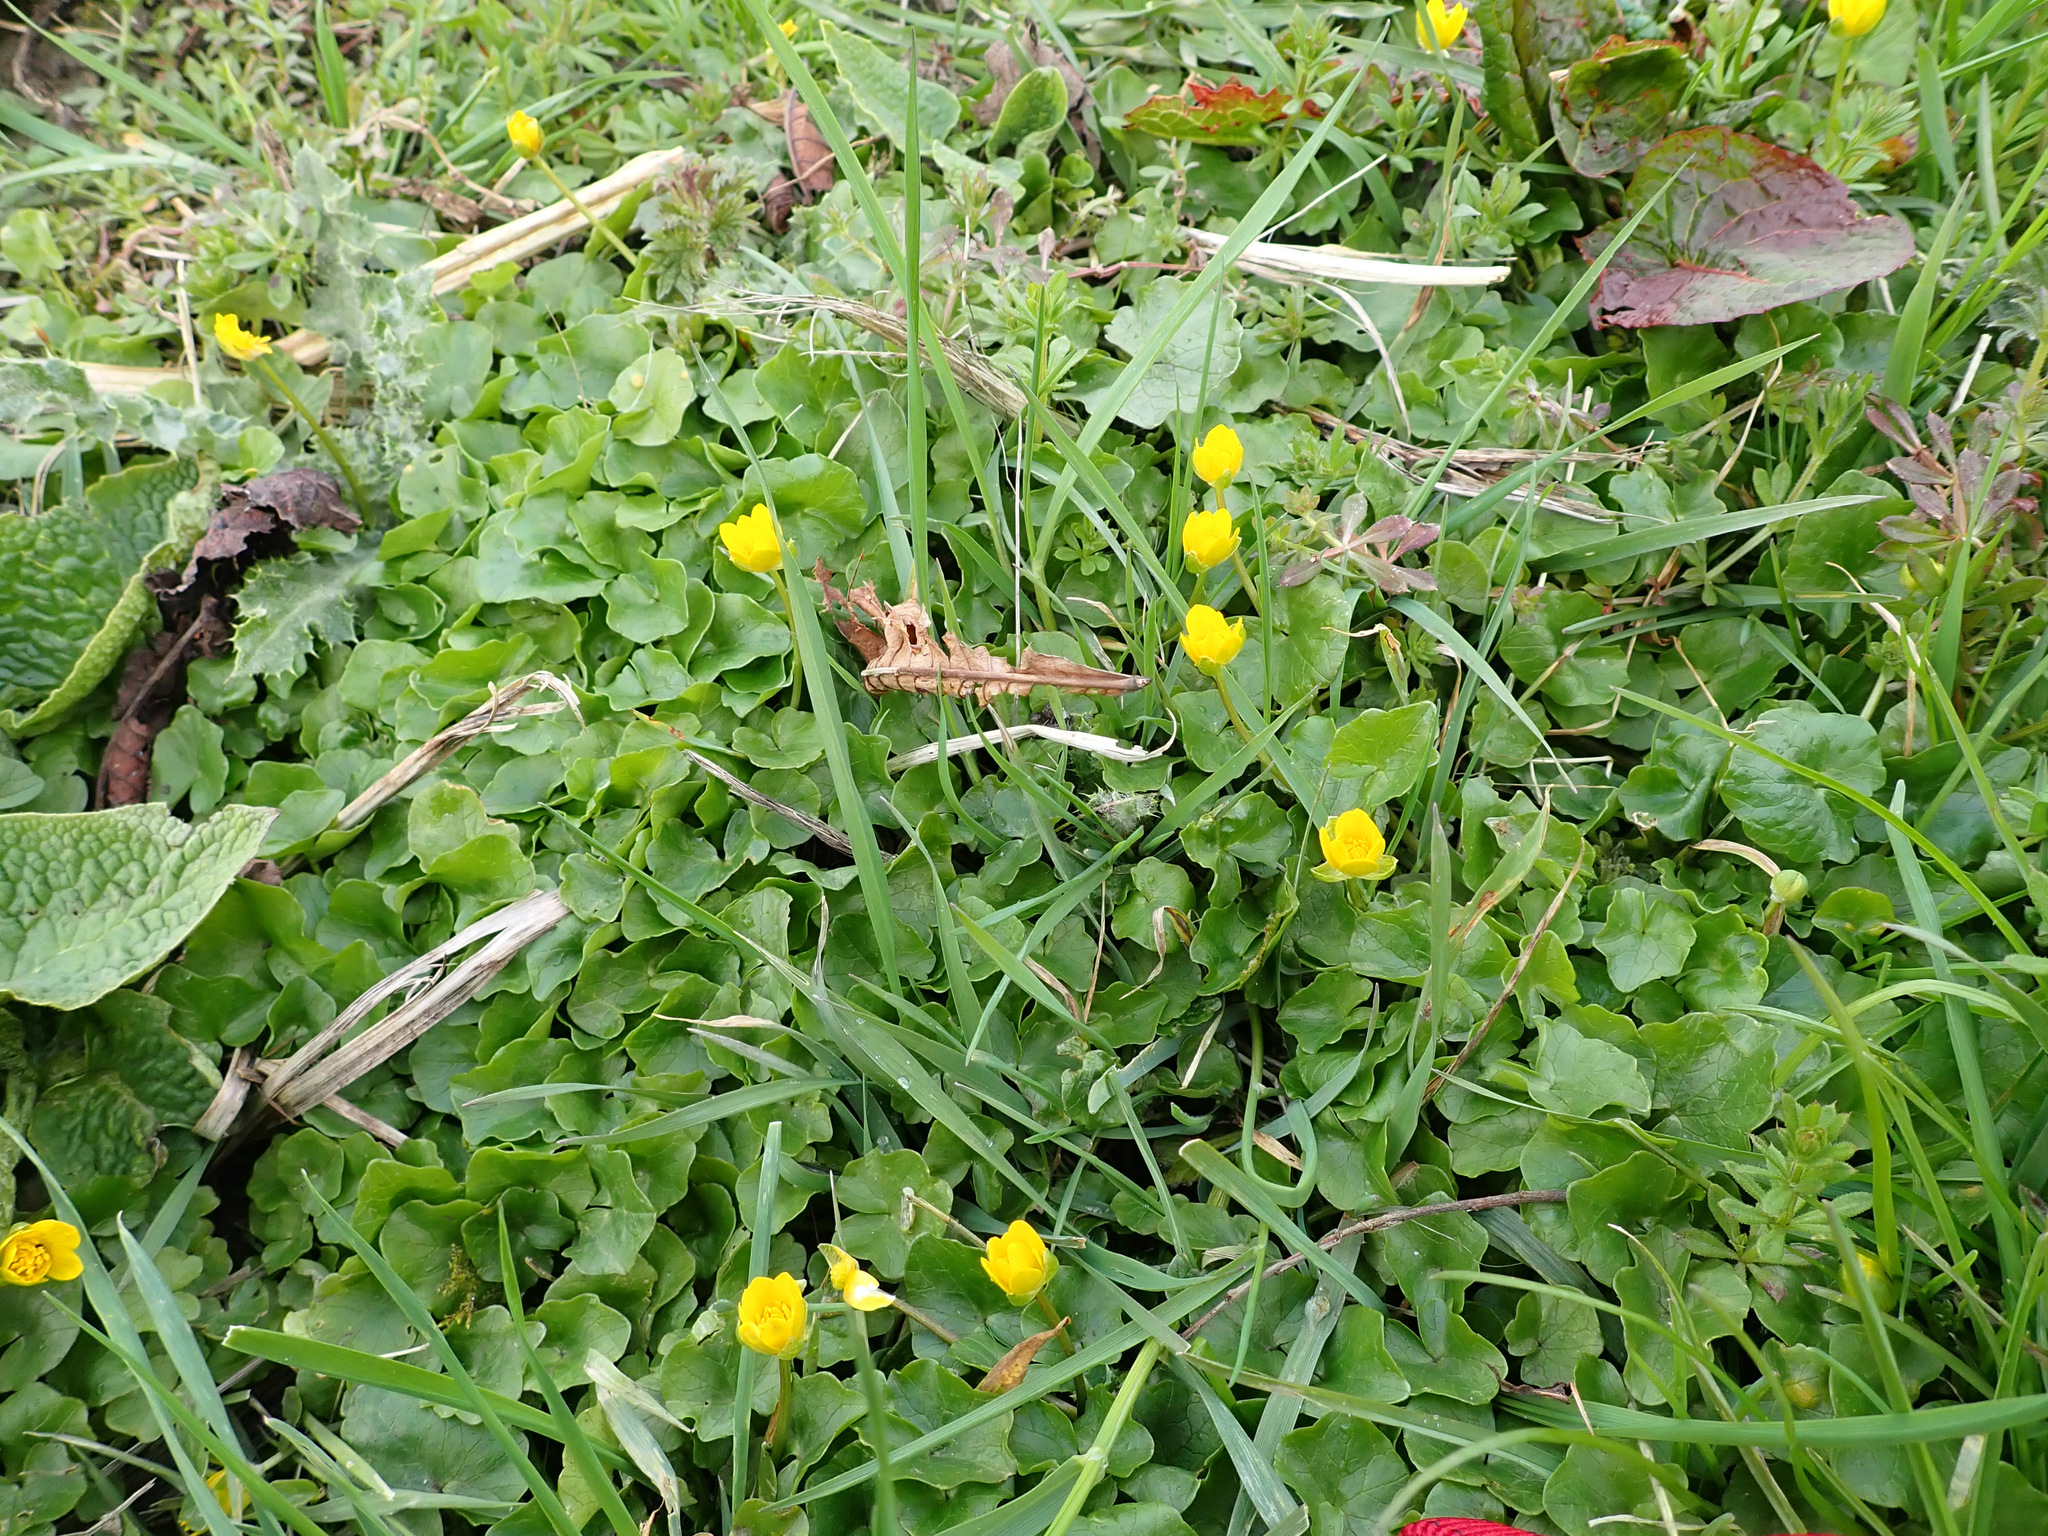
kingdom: Plantae
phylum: Tracheophyta
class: Magnoliopsida
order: Ranunculales
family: Ranunculaceae
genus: Ficaria
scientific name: Ficaria verna
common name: Lesser celandine
